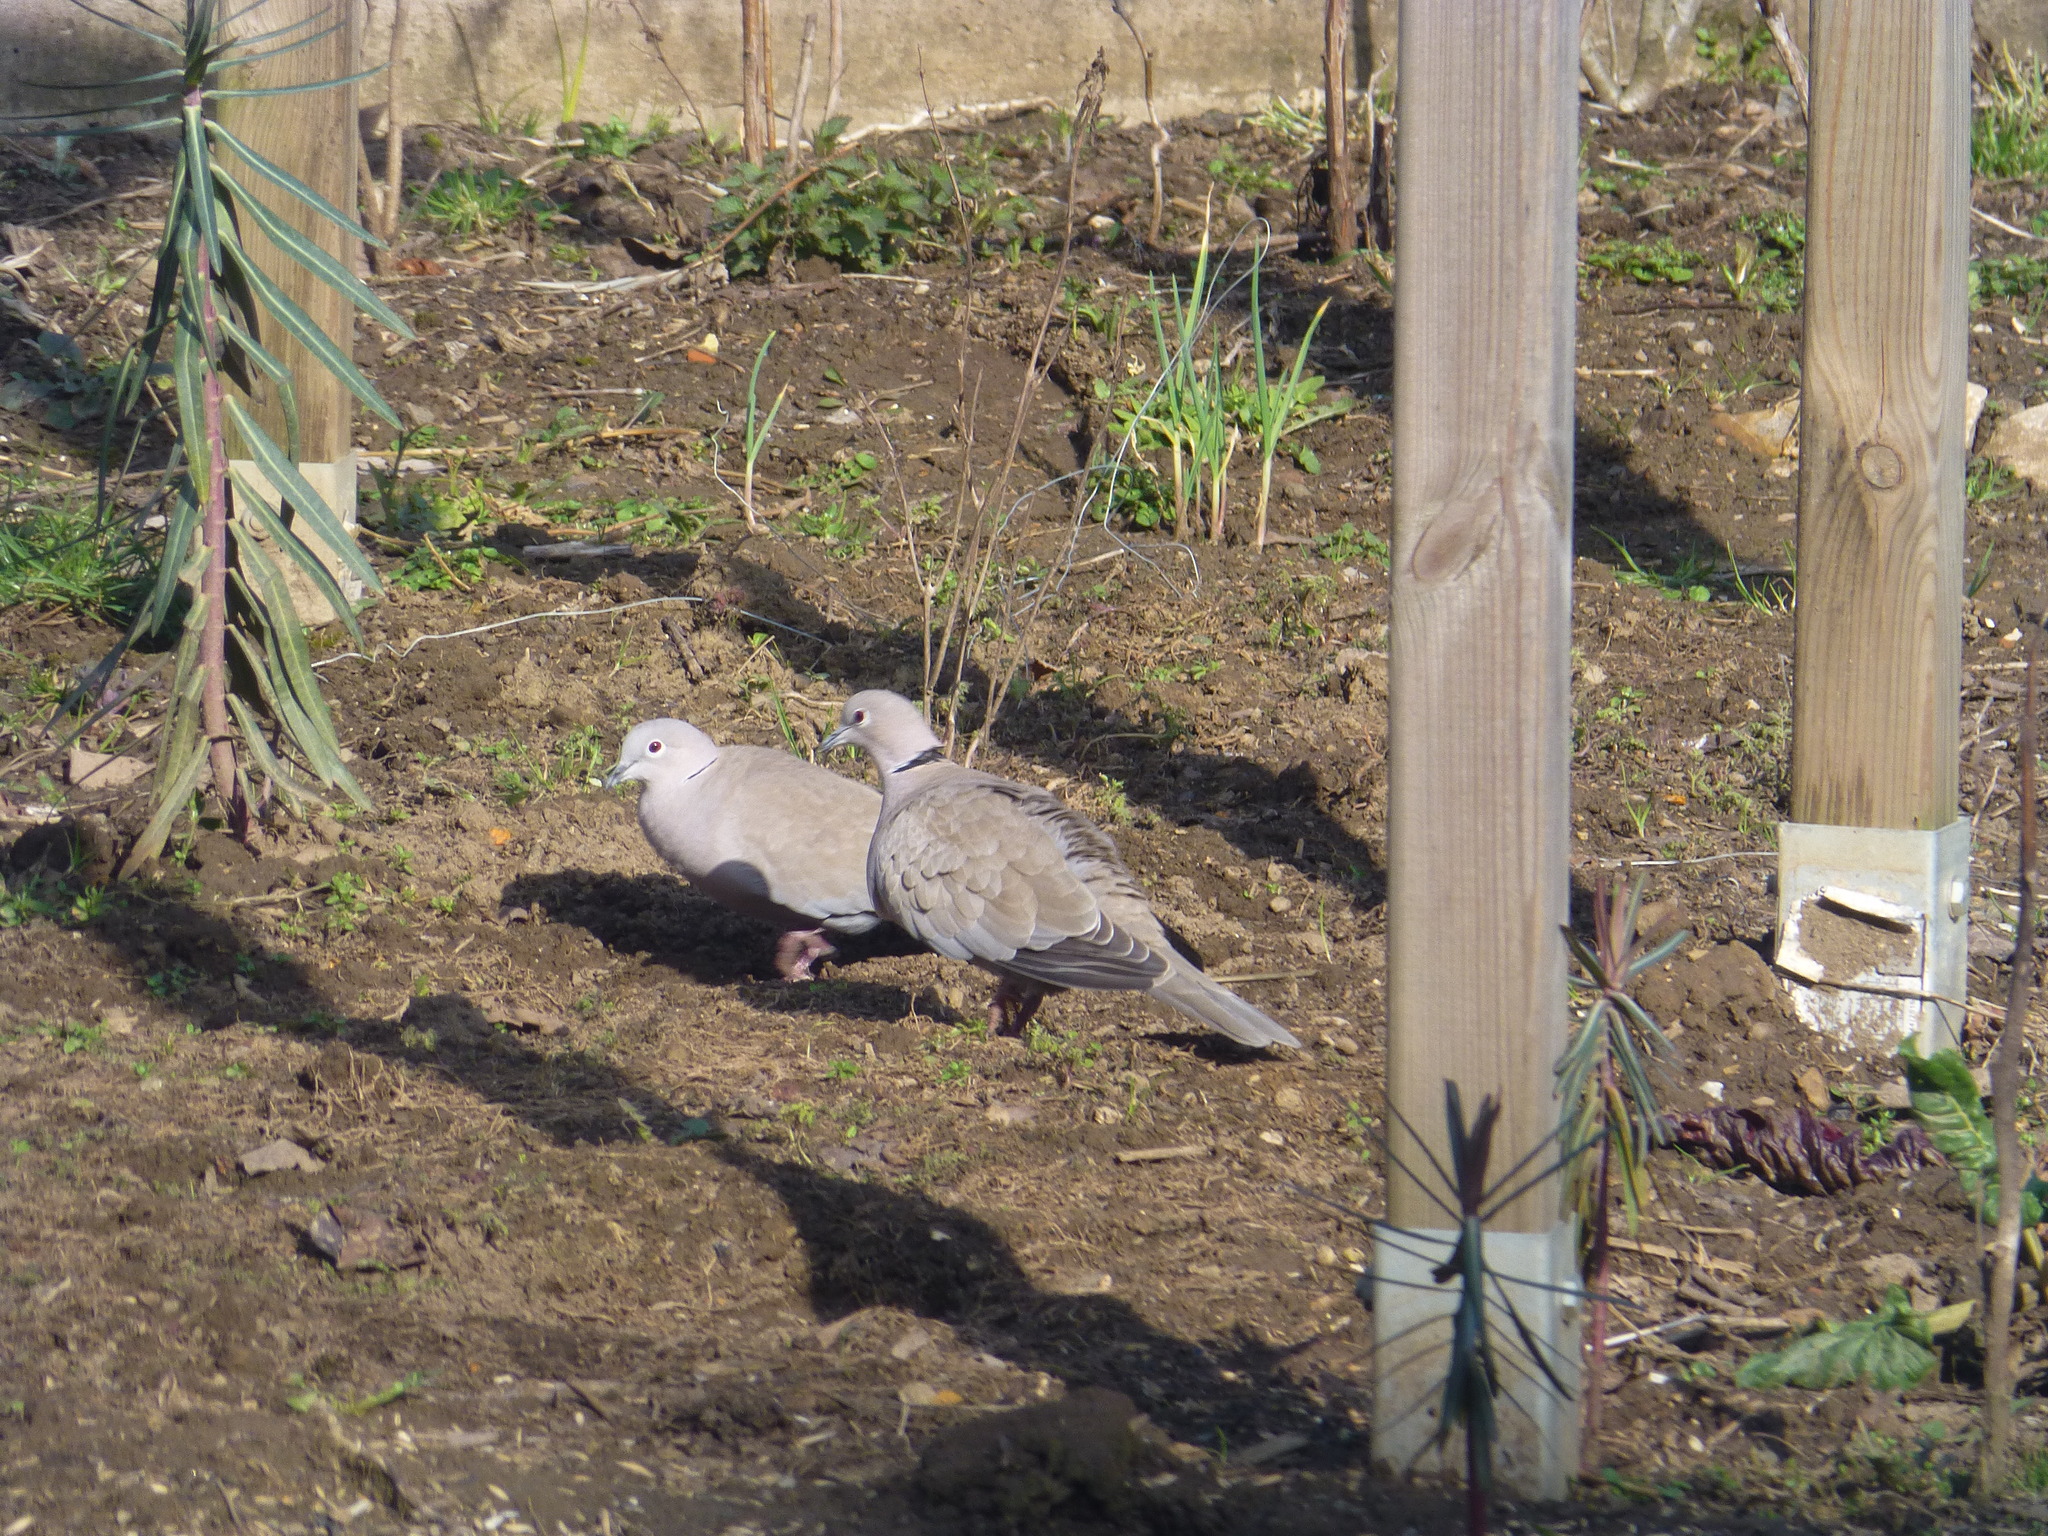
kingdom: Animalia
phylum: Chordata
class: Aves
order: Columbiformes
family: Columbidae
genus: Streptopelia
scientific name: Streptopelia decaocto
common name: Eurasian collared dove
